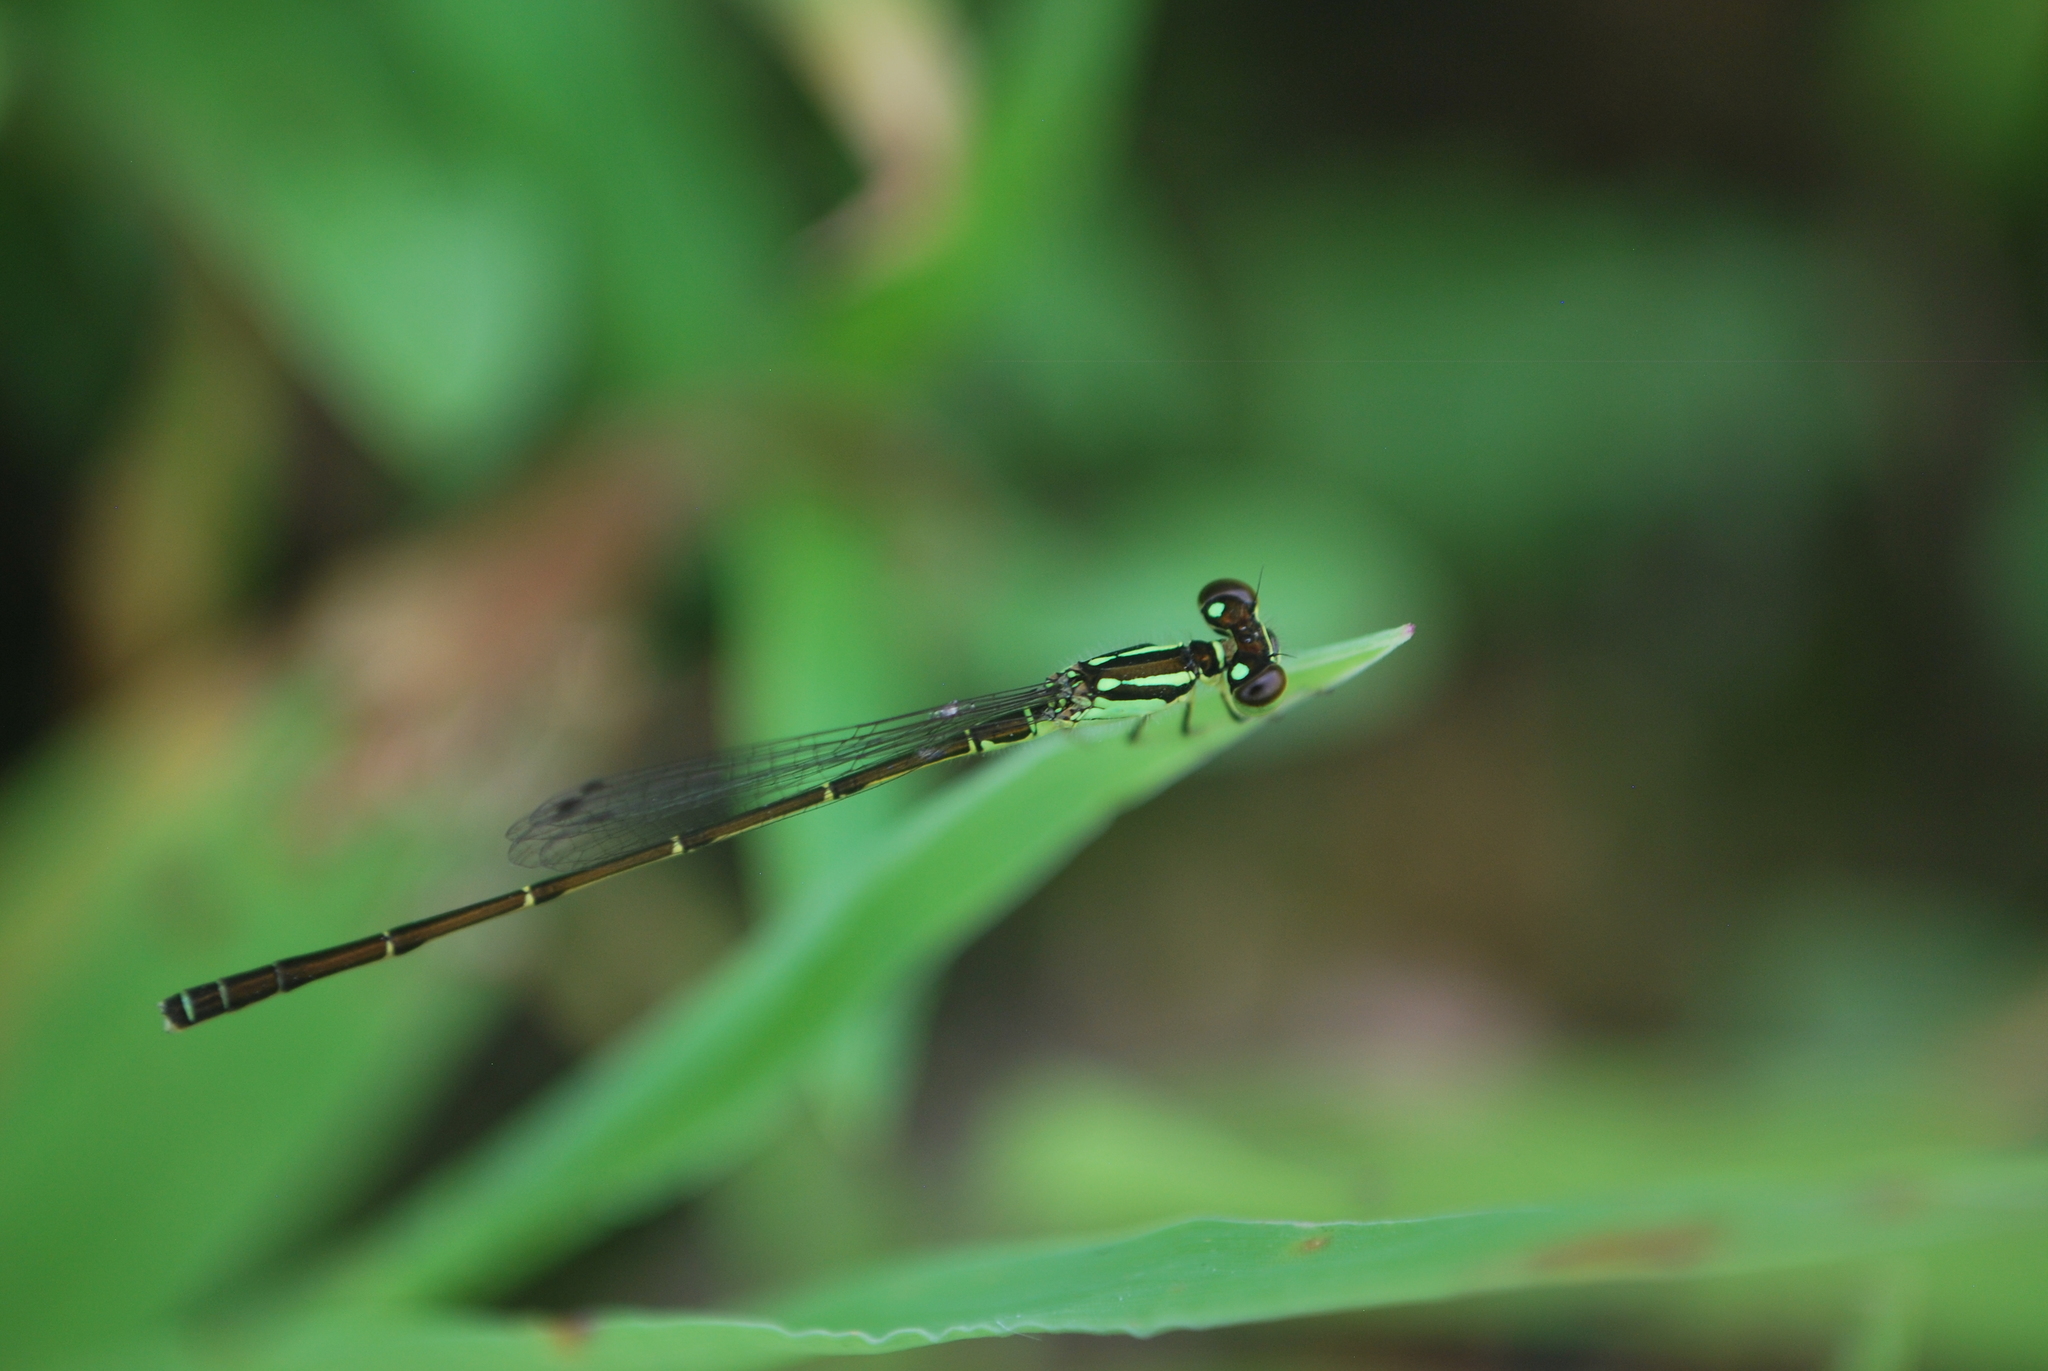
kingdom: Animalia
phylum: Arthropoda
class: Insecta
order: Odonata
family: Coenagrionidae
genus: Ischnura
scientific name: Ischnura posita
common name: Fragile forktail
